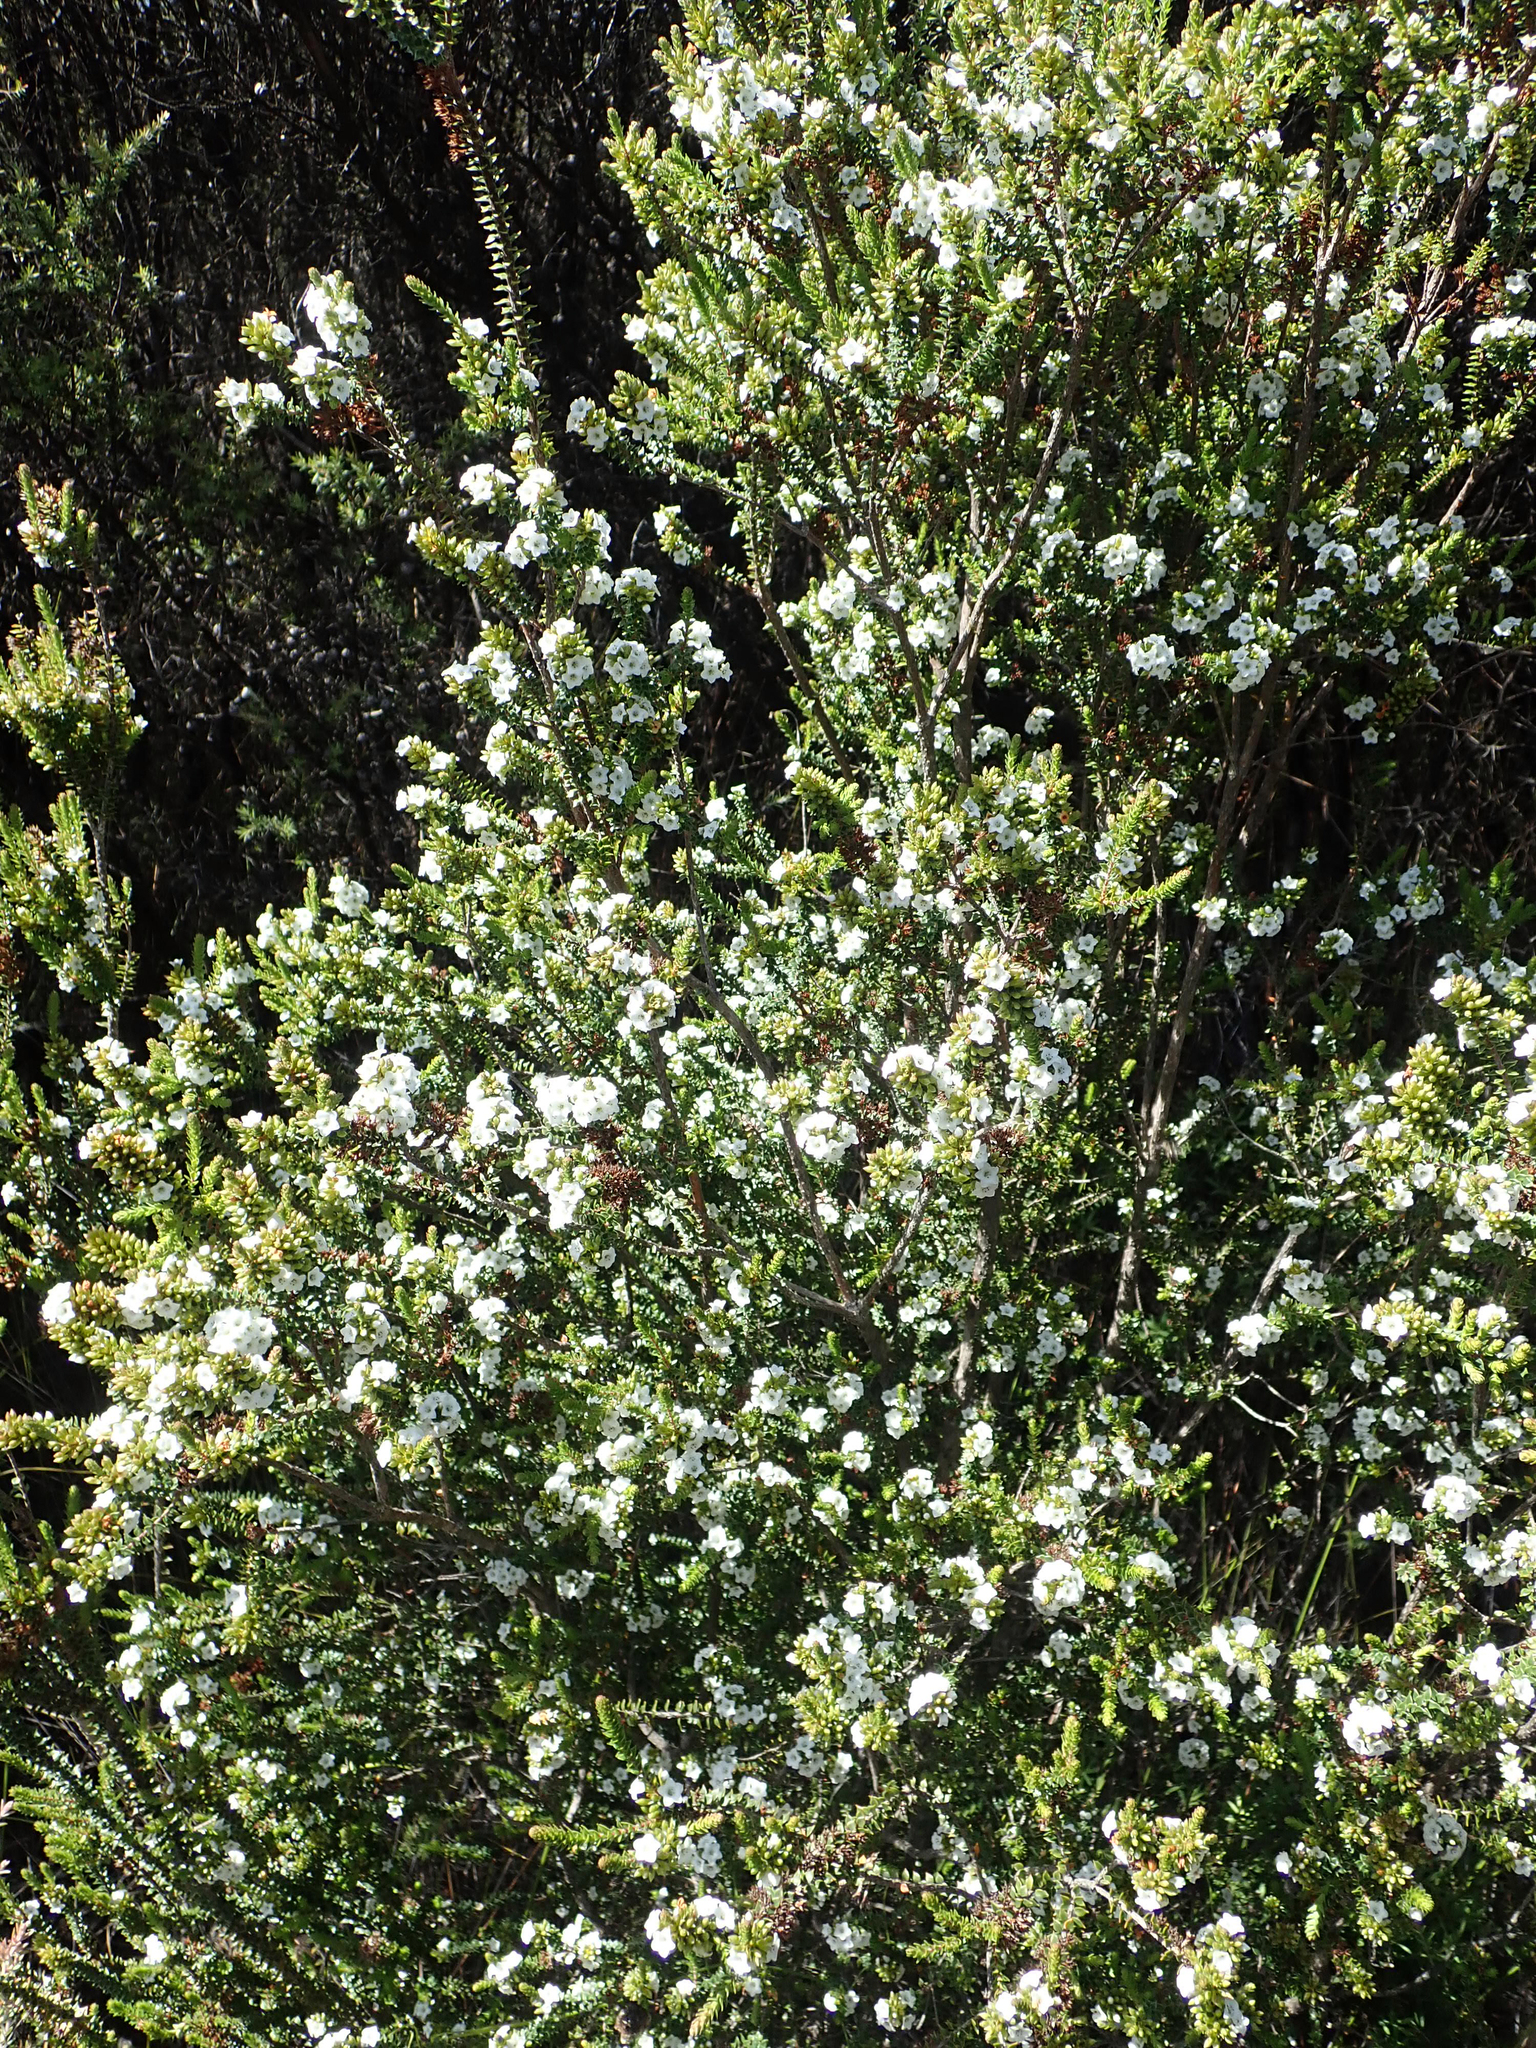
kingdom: Plantae
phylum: Tracheophyta
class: Magnoliopsida
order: Ericales
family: Ericaceae
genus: Epacris
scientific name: Epacris pauciflora
